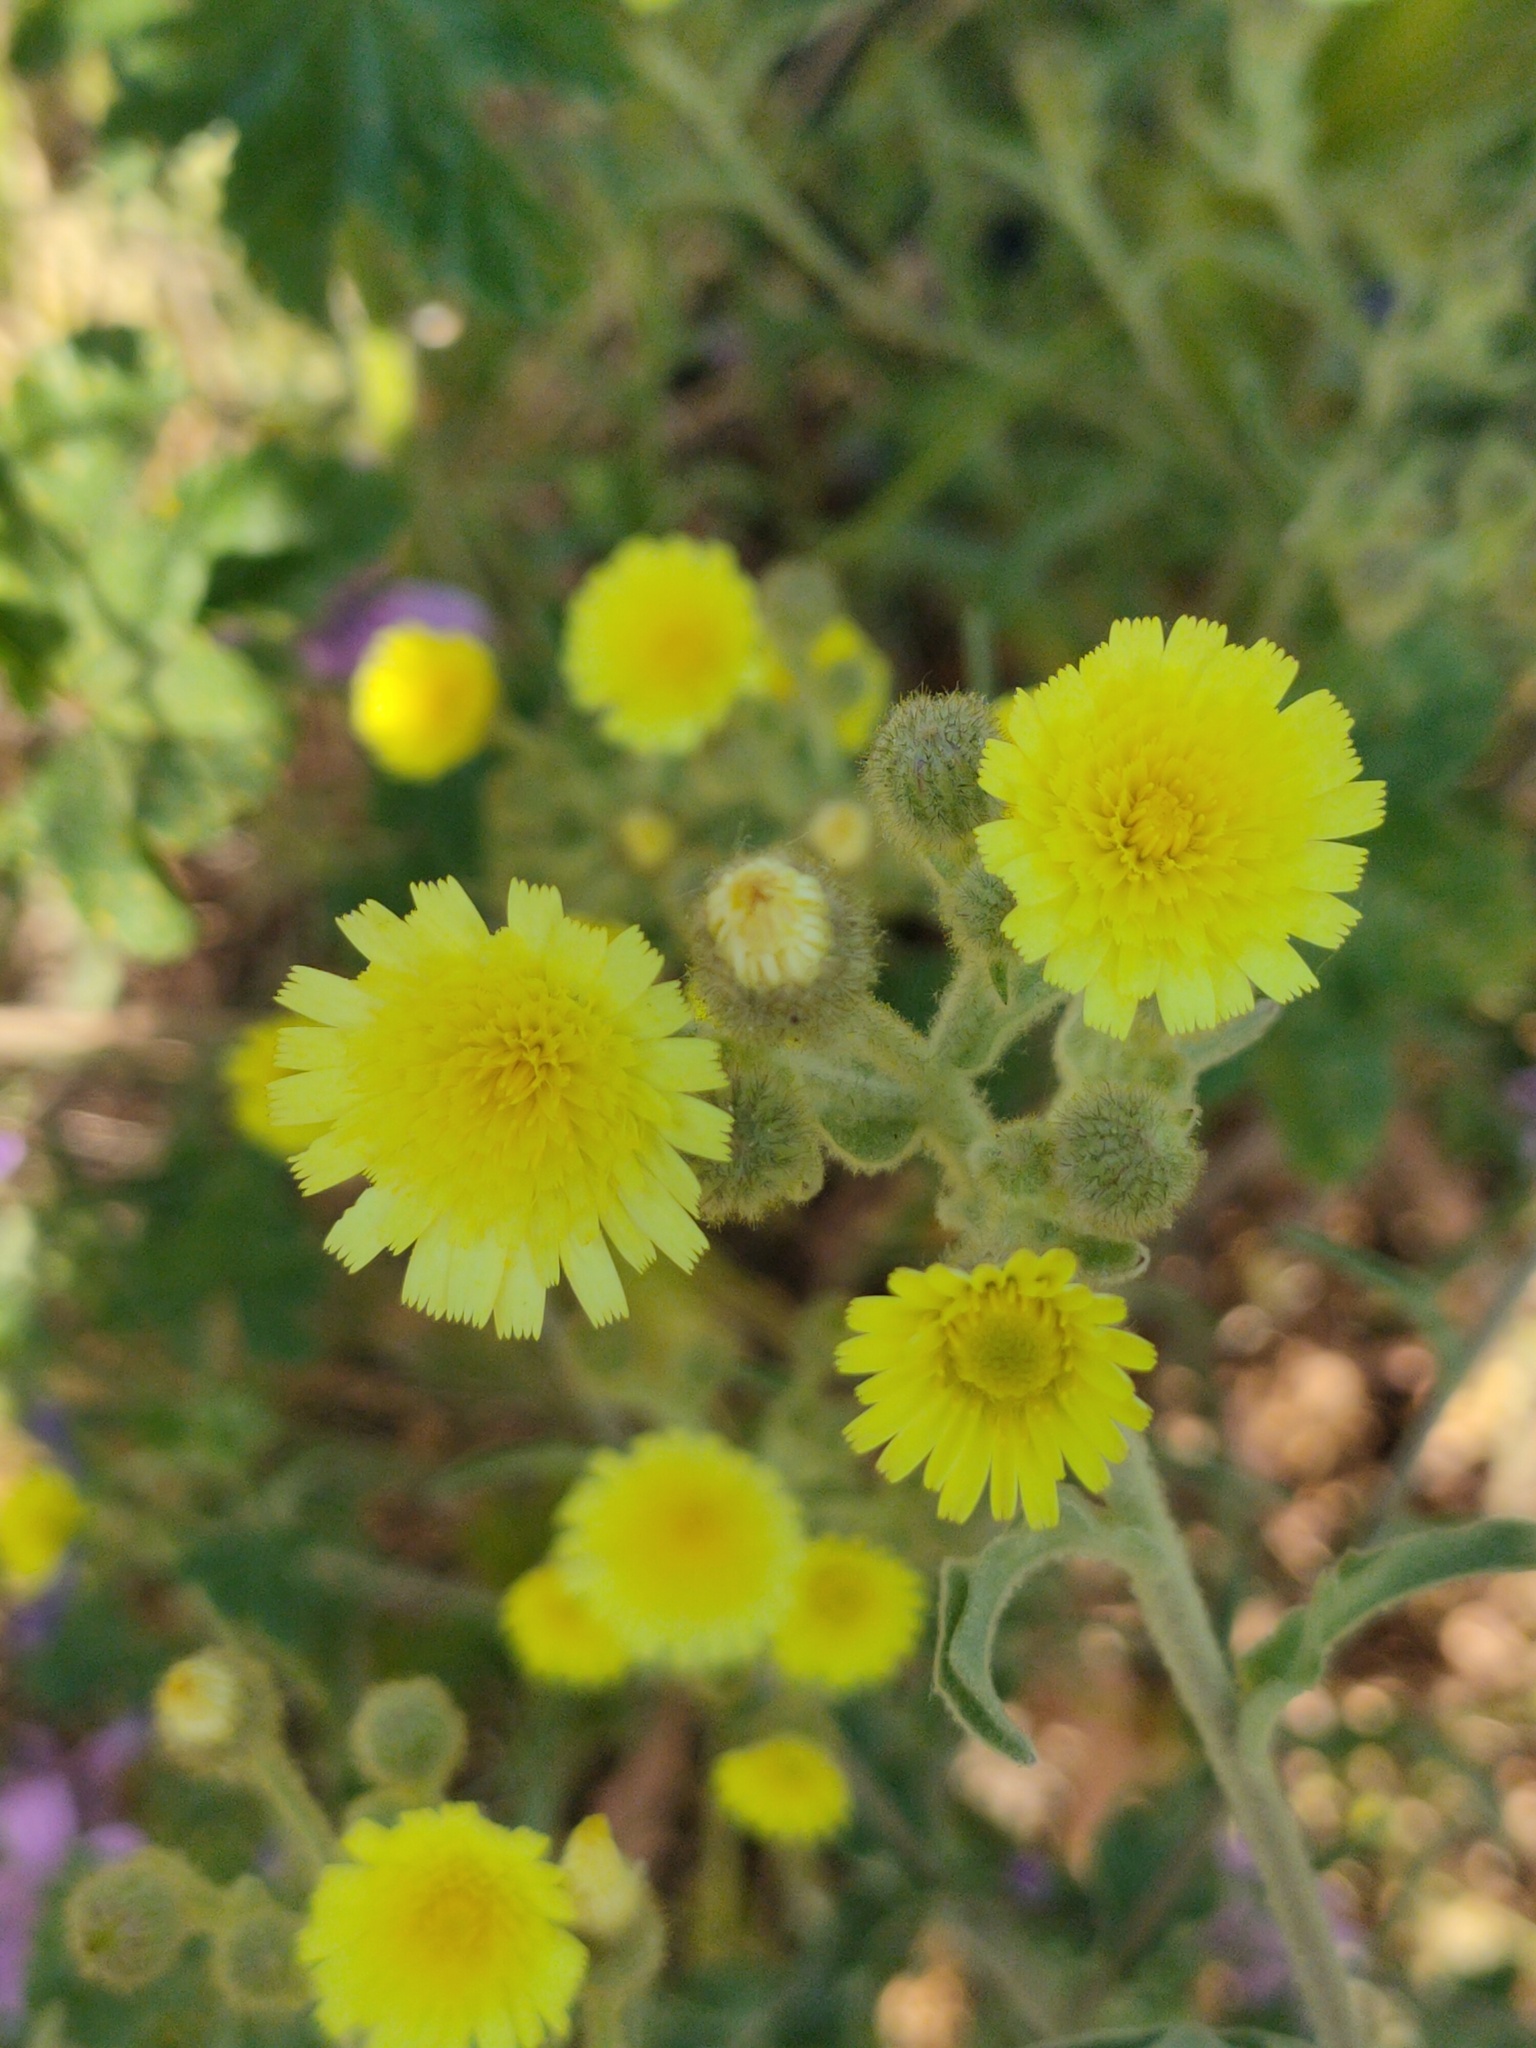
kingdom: Plantae
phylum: Tracheophyta
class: Magnoliopsida
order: Asterales
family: Asteraceae
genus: Andryala
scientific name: Andryala integrifolia
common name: Common andryala
